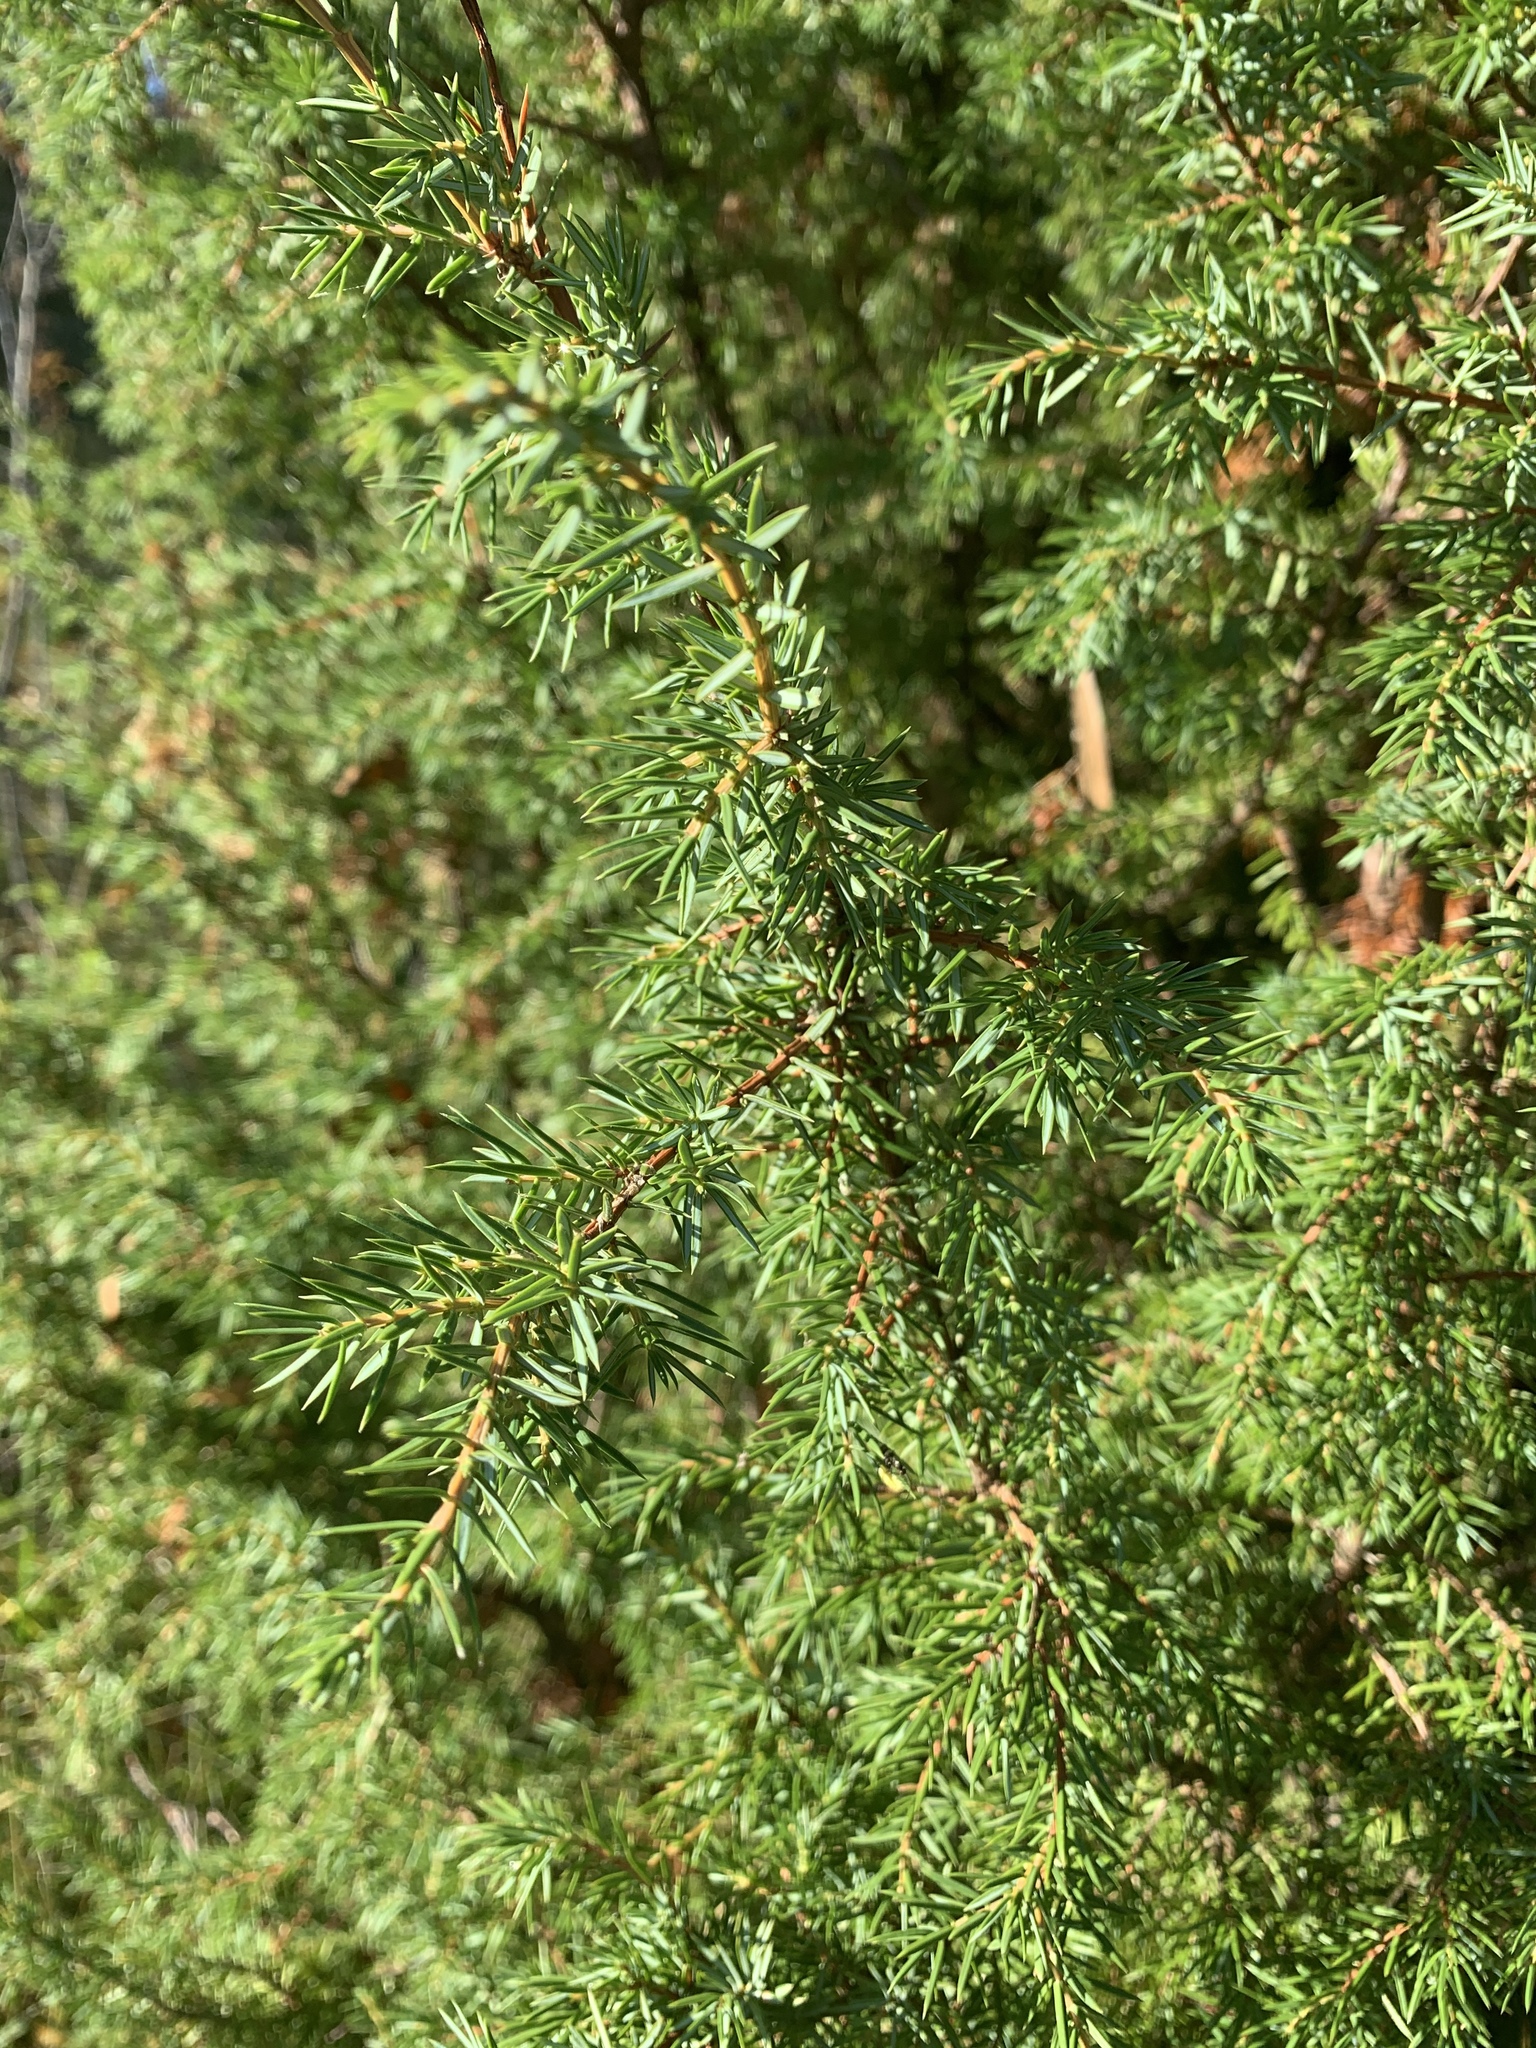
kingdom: Plantae
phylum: Tracheophyta
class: Pinopsida
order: Pinales
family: Cupressaceae
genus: Juniperus
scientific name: Juniperus communis
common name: Common juniper
